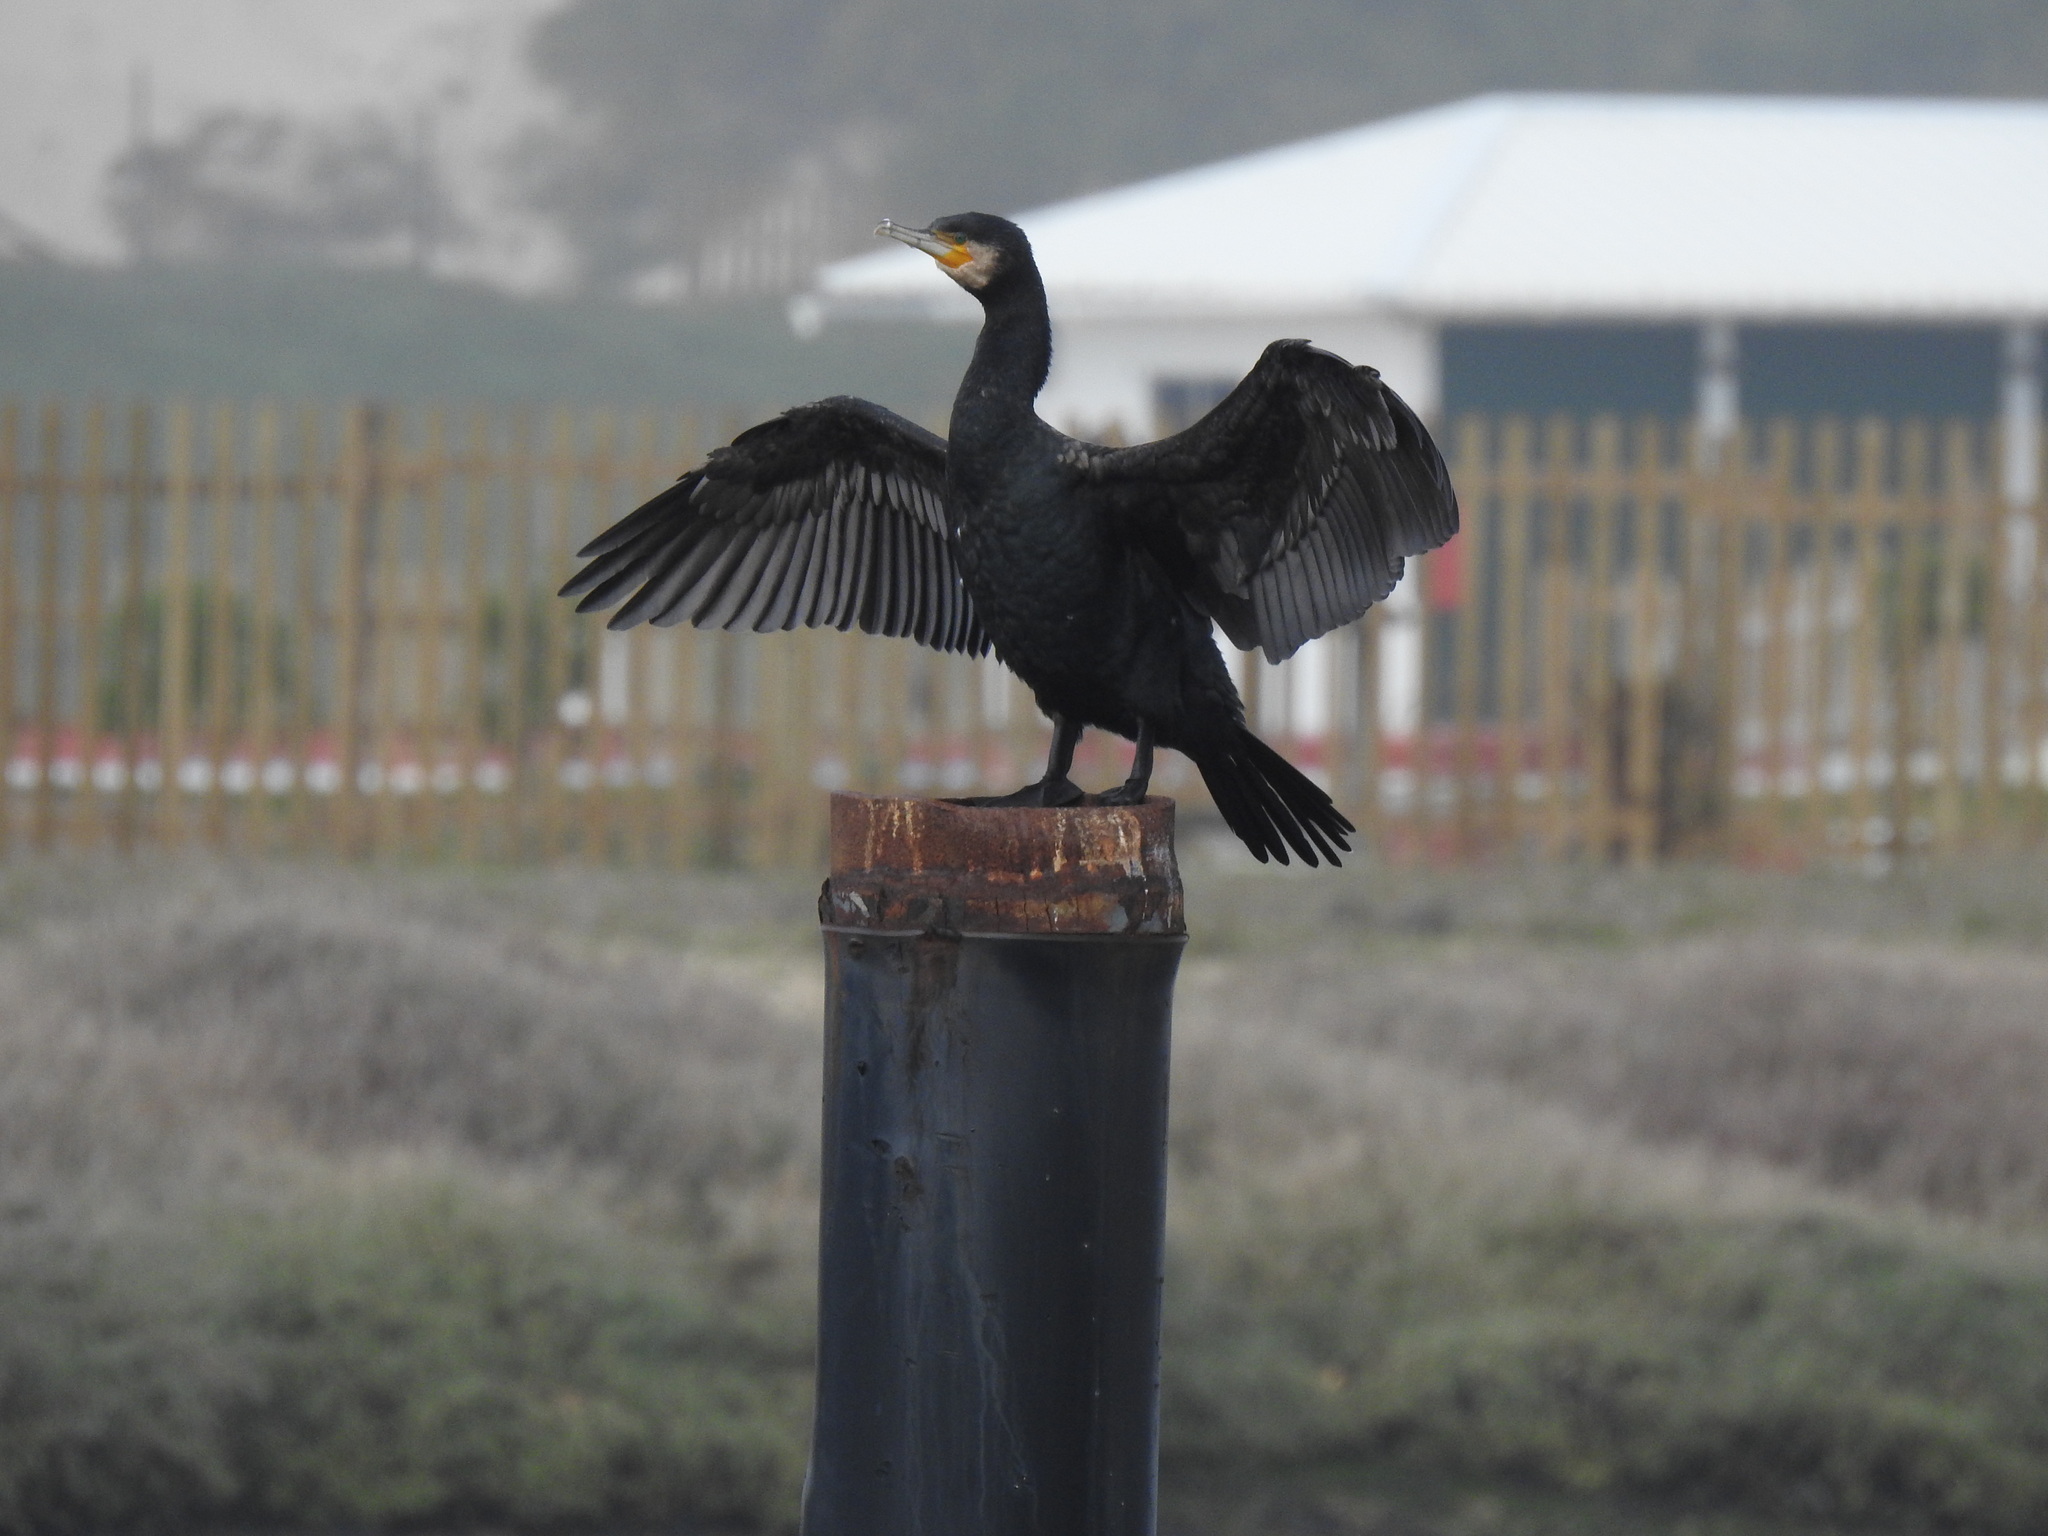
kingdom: Animalia
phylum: Chordata
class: Aves
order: Suliformes
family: Phalacrocoracidae
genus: Phalacrocorax
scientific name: Phalacrocorax carbo
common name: Great cormorant
